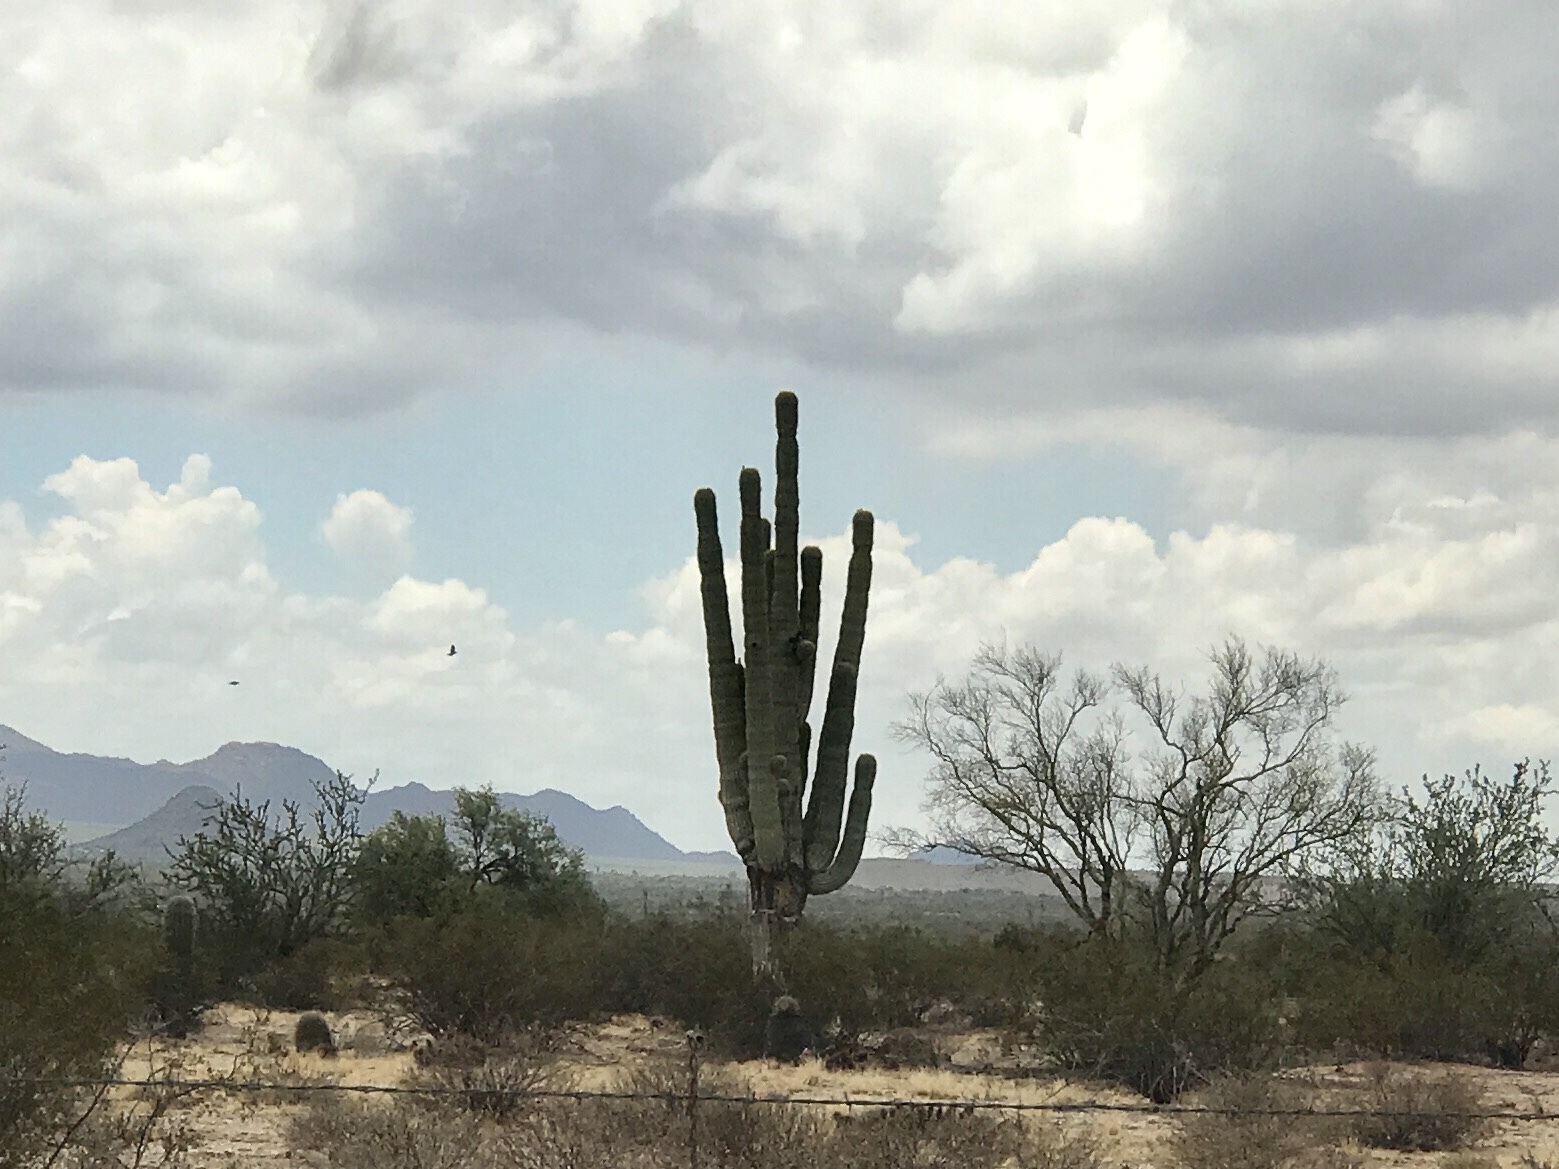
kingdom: Plantae
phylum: Tracheophyta
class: Magnoliopsida
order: Caryophyllales
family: Cactaceae
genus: Carnegiea
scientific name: Carnegiea gigantea
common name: Saguaro
